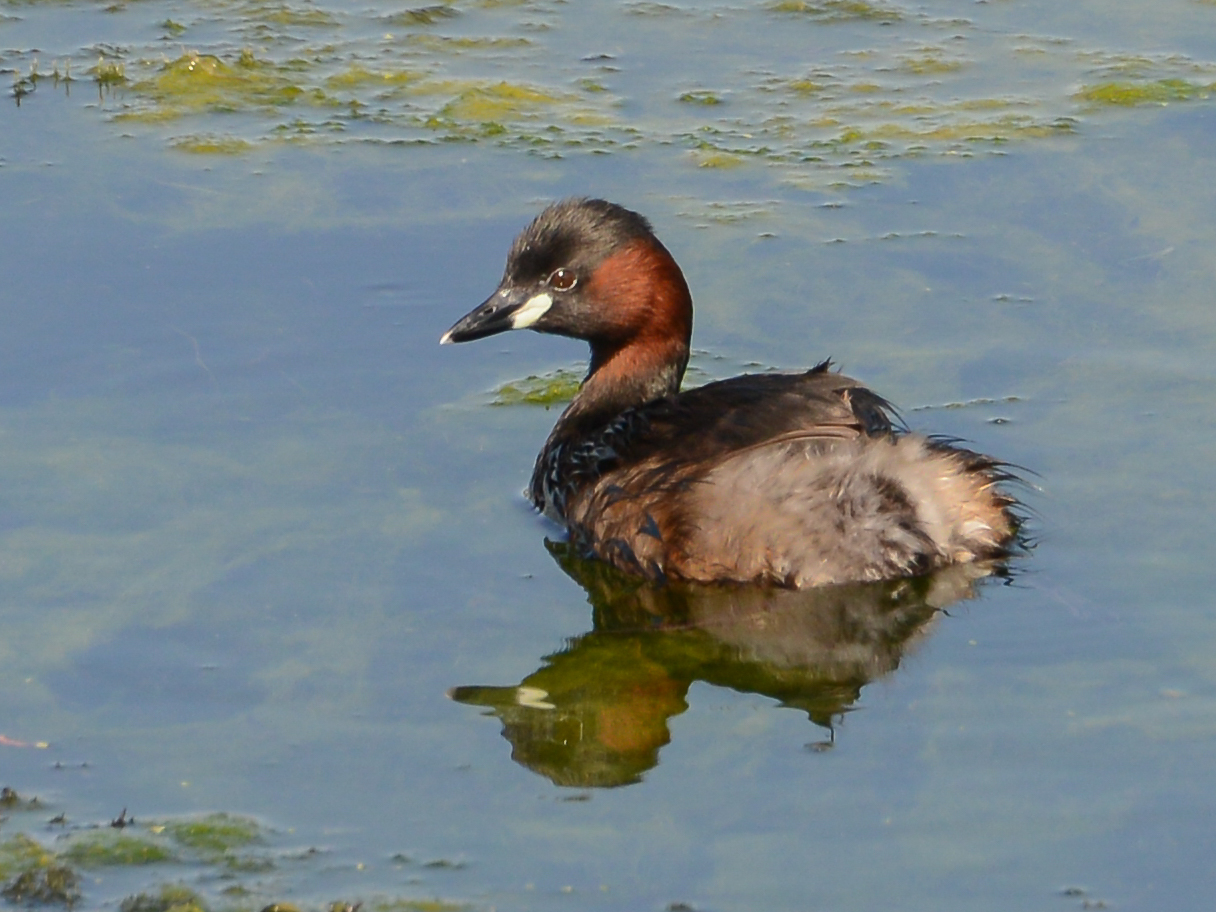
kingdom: Animalia
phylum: Chordata
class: Aves
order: Podicipediformes
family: Podicipedidae
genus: Tachybaptus
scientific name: Tachybaptus ruficollis
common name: Little grebe
